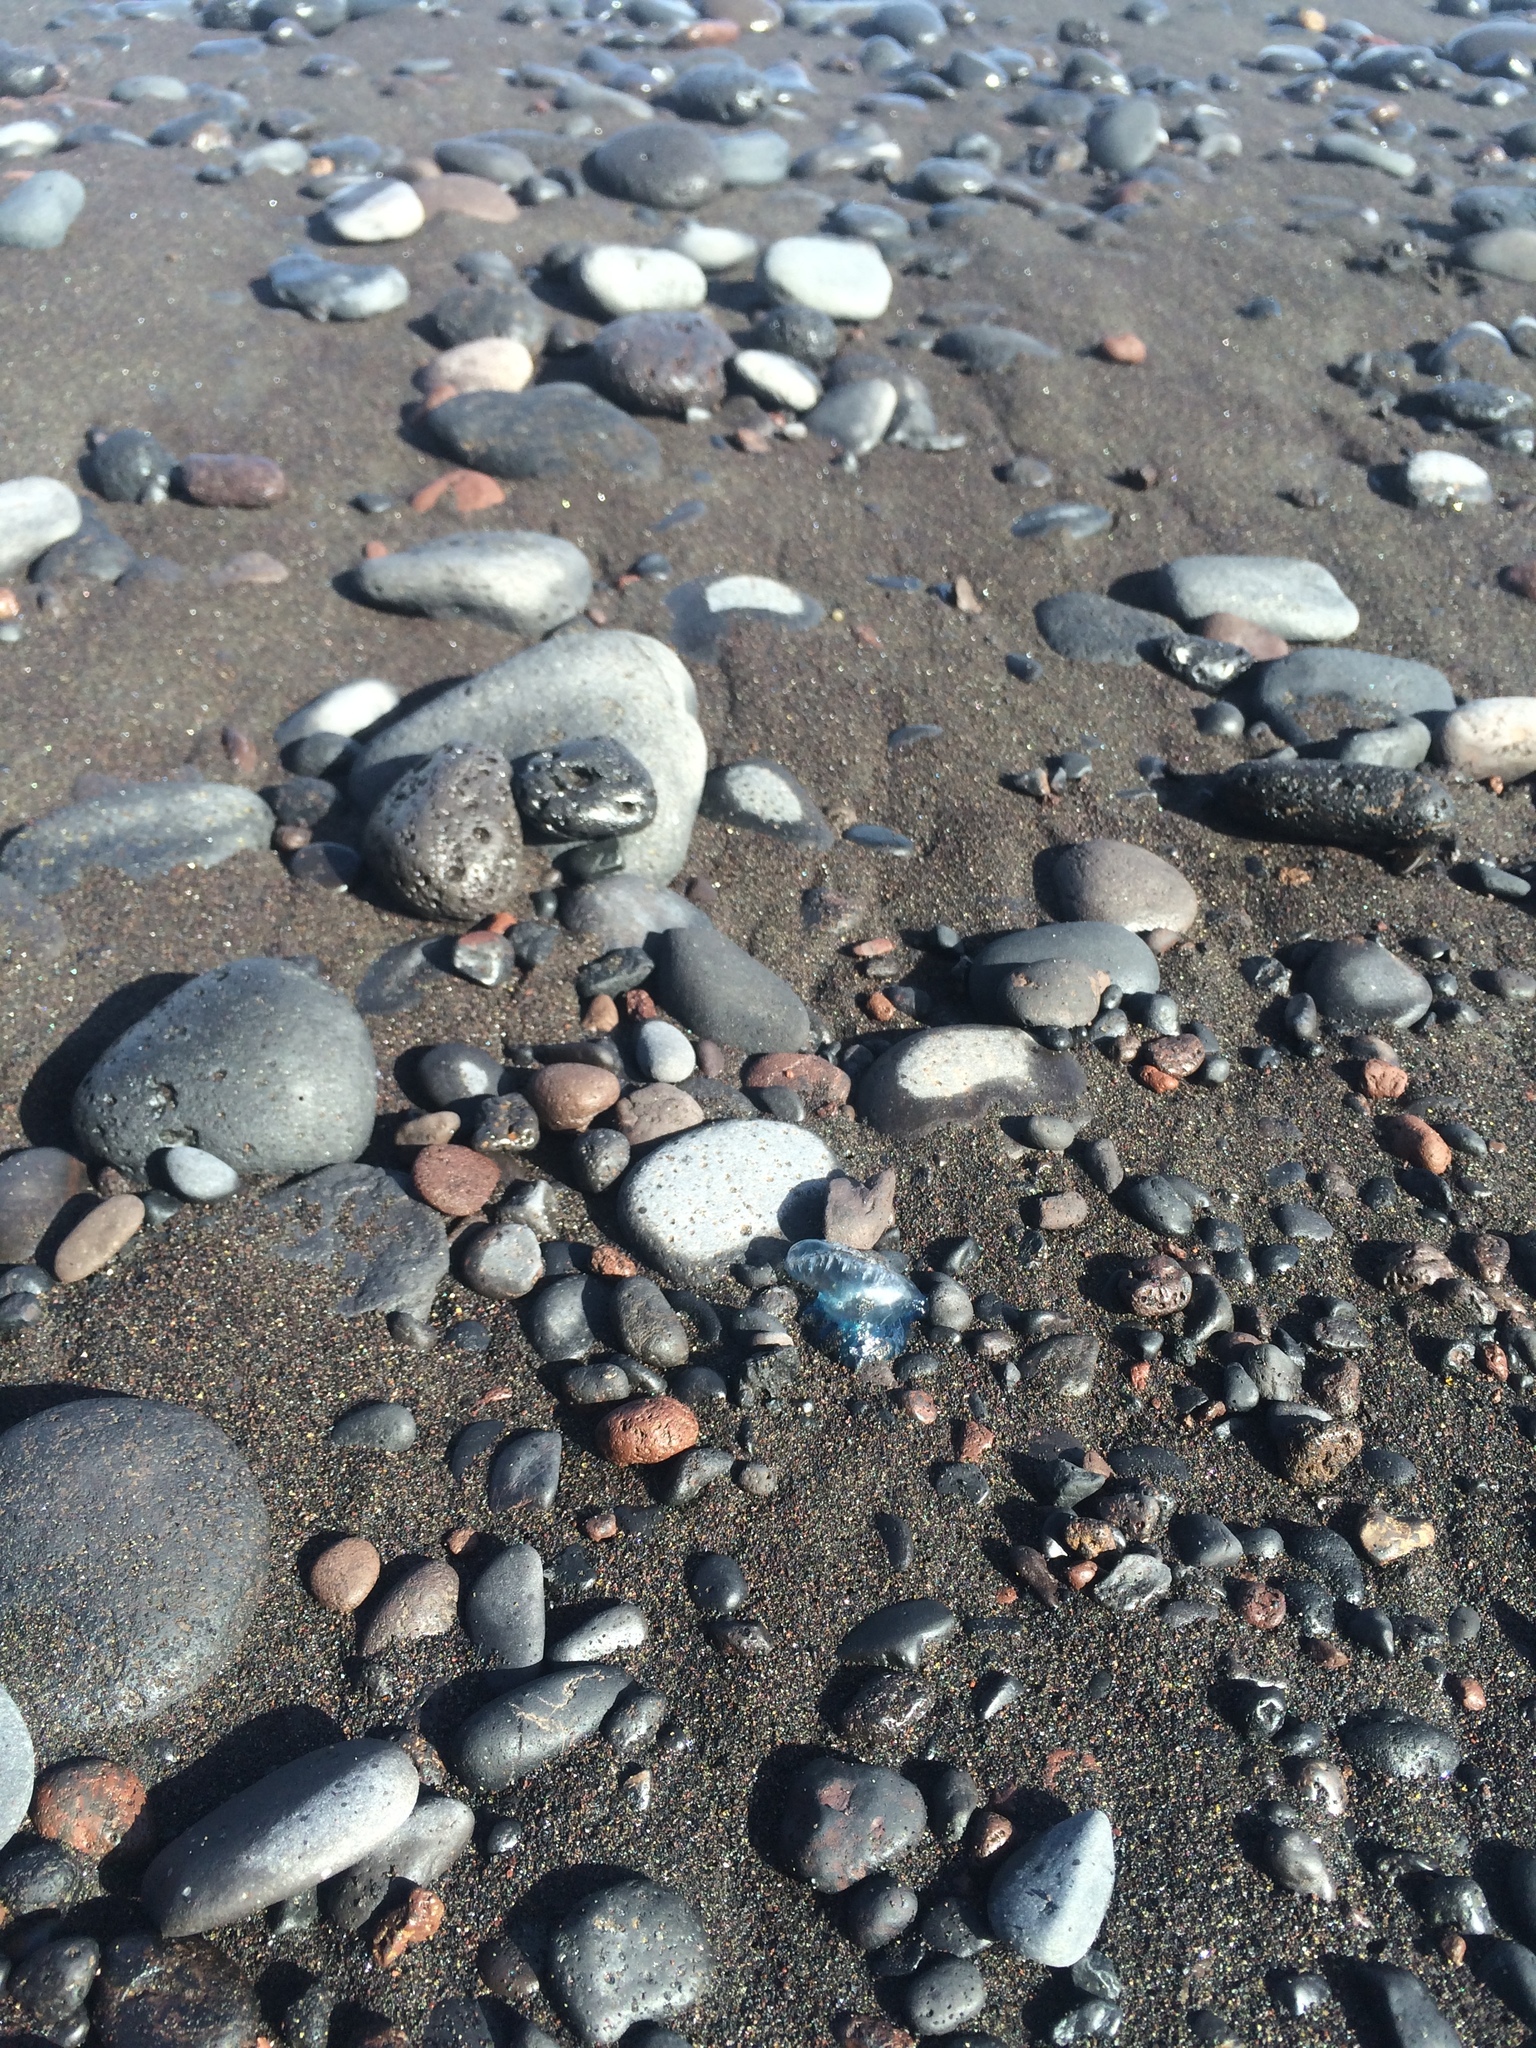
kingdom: Animalia
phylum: Cnidaria
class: Hydrozoa
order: Siphonophorae
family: Physaliidae
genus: Physalia
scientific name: Physalia physalis
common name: Portuguese man-of-war
